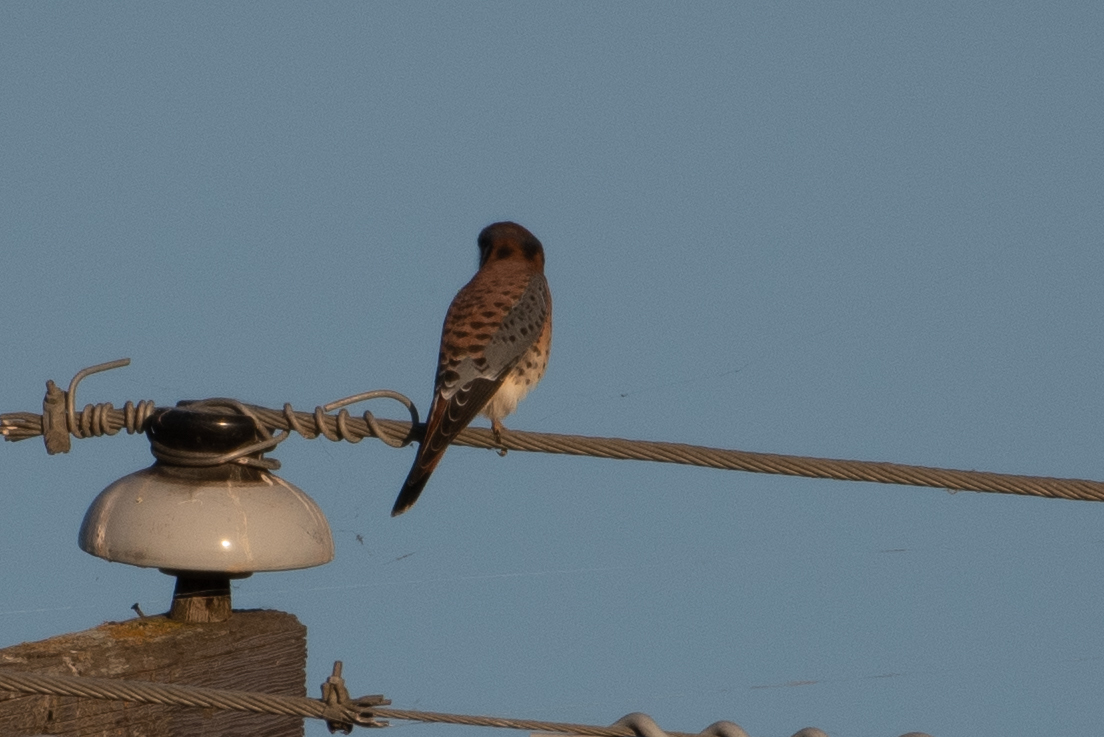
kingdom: Animalia
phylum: Chordata
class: Aves
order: Falconiformes
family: Falconidae
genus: Falco
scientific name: Falco sparverius
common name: American kestrel
